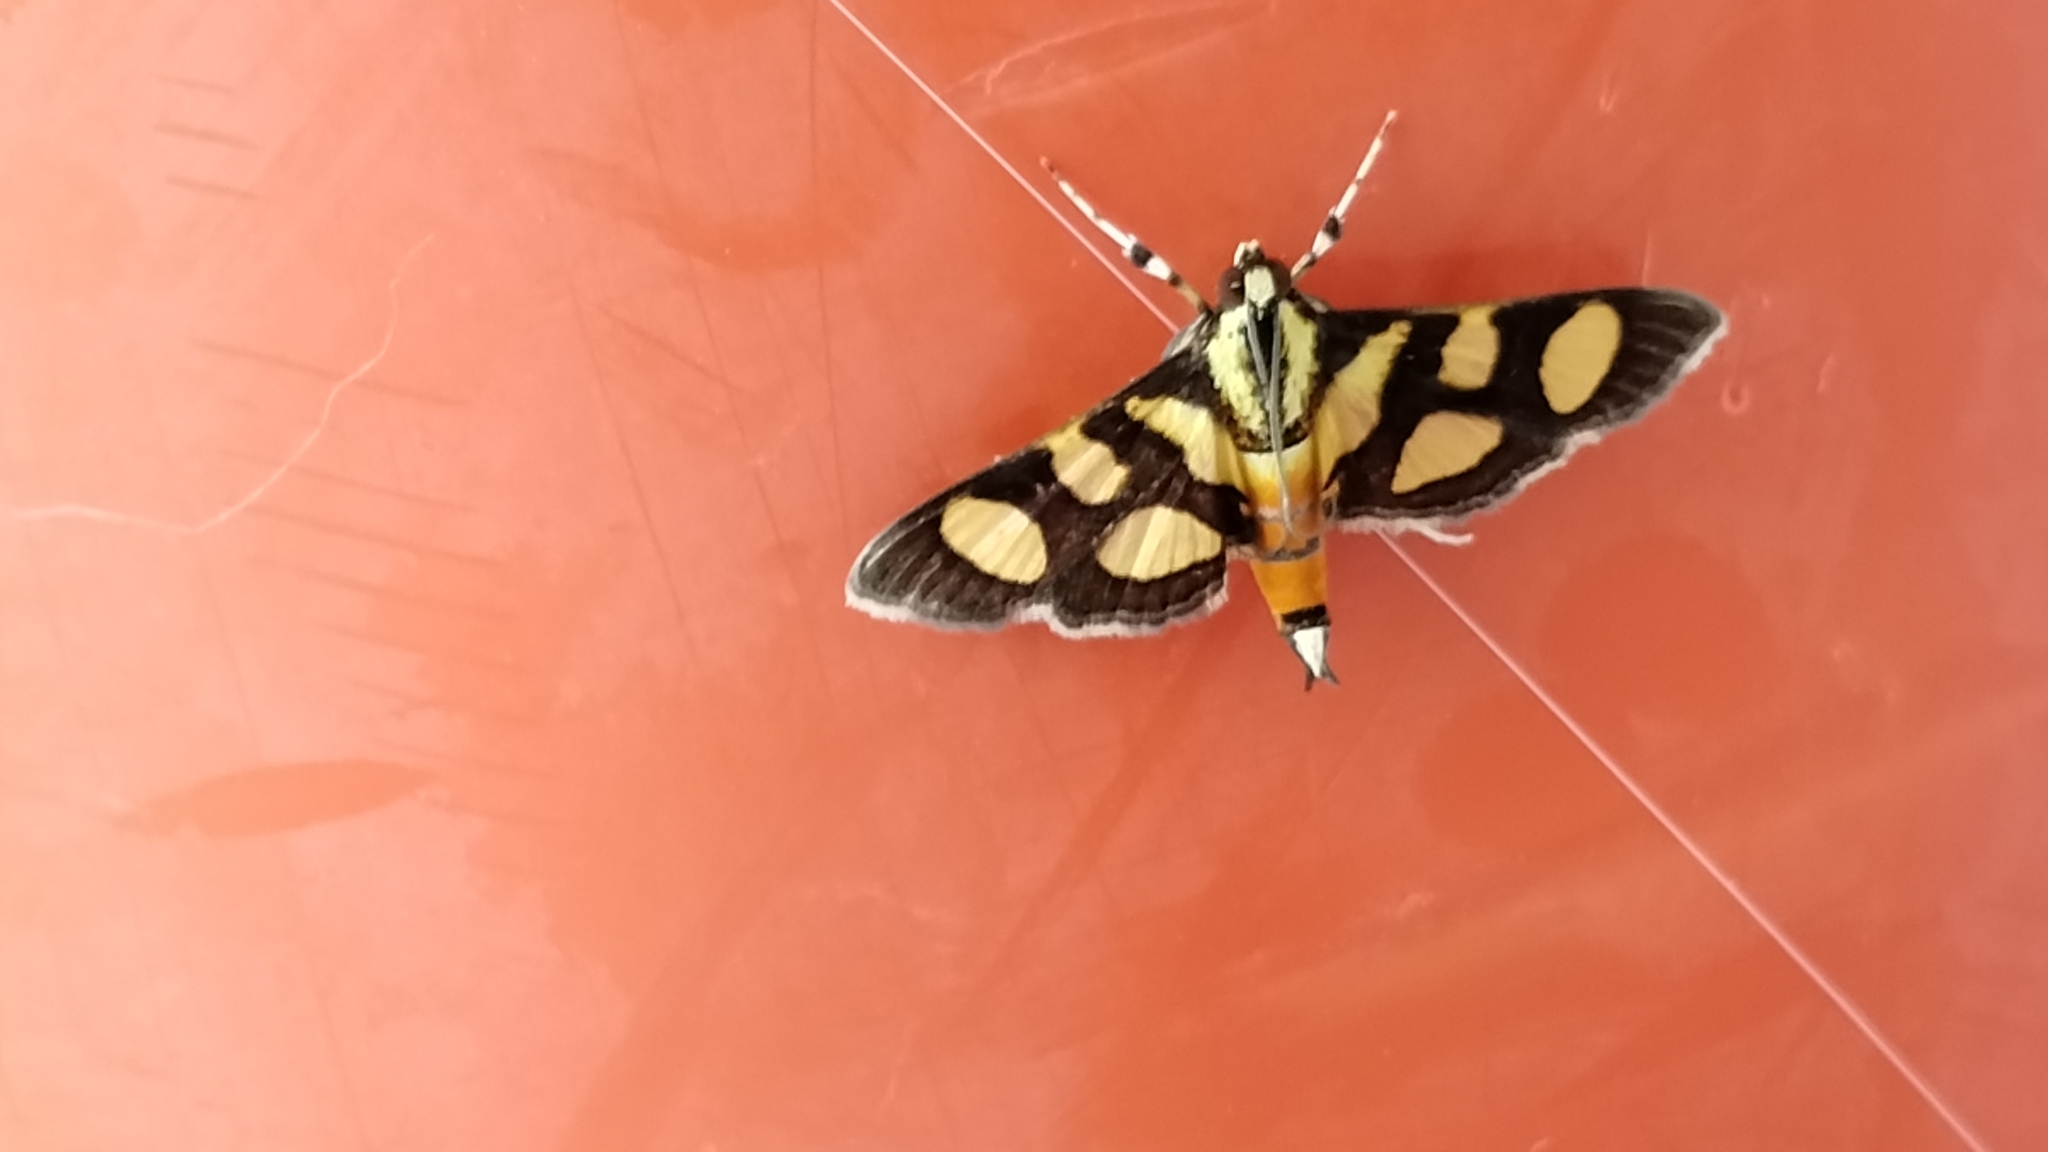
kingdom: Animalia
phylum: Arthropoda
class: Insecta
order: Lepidoptera
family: Crambidae
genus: Syngamia
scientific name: Syngamia florella
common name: Orange-spotted flower moth
